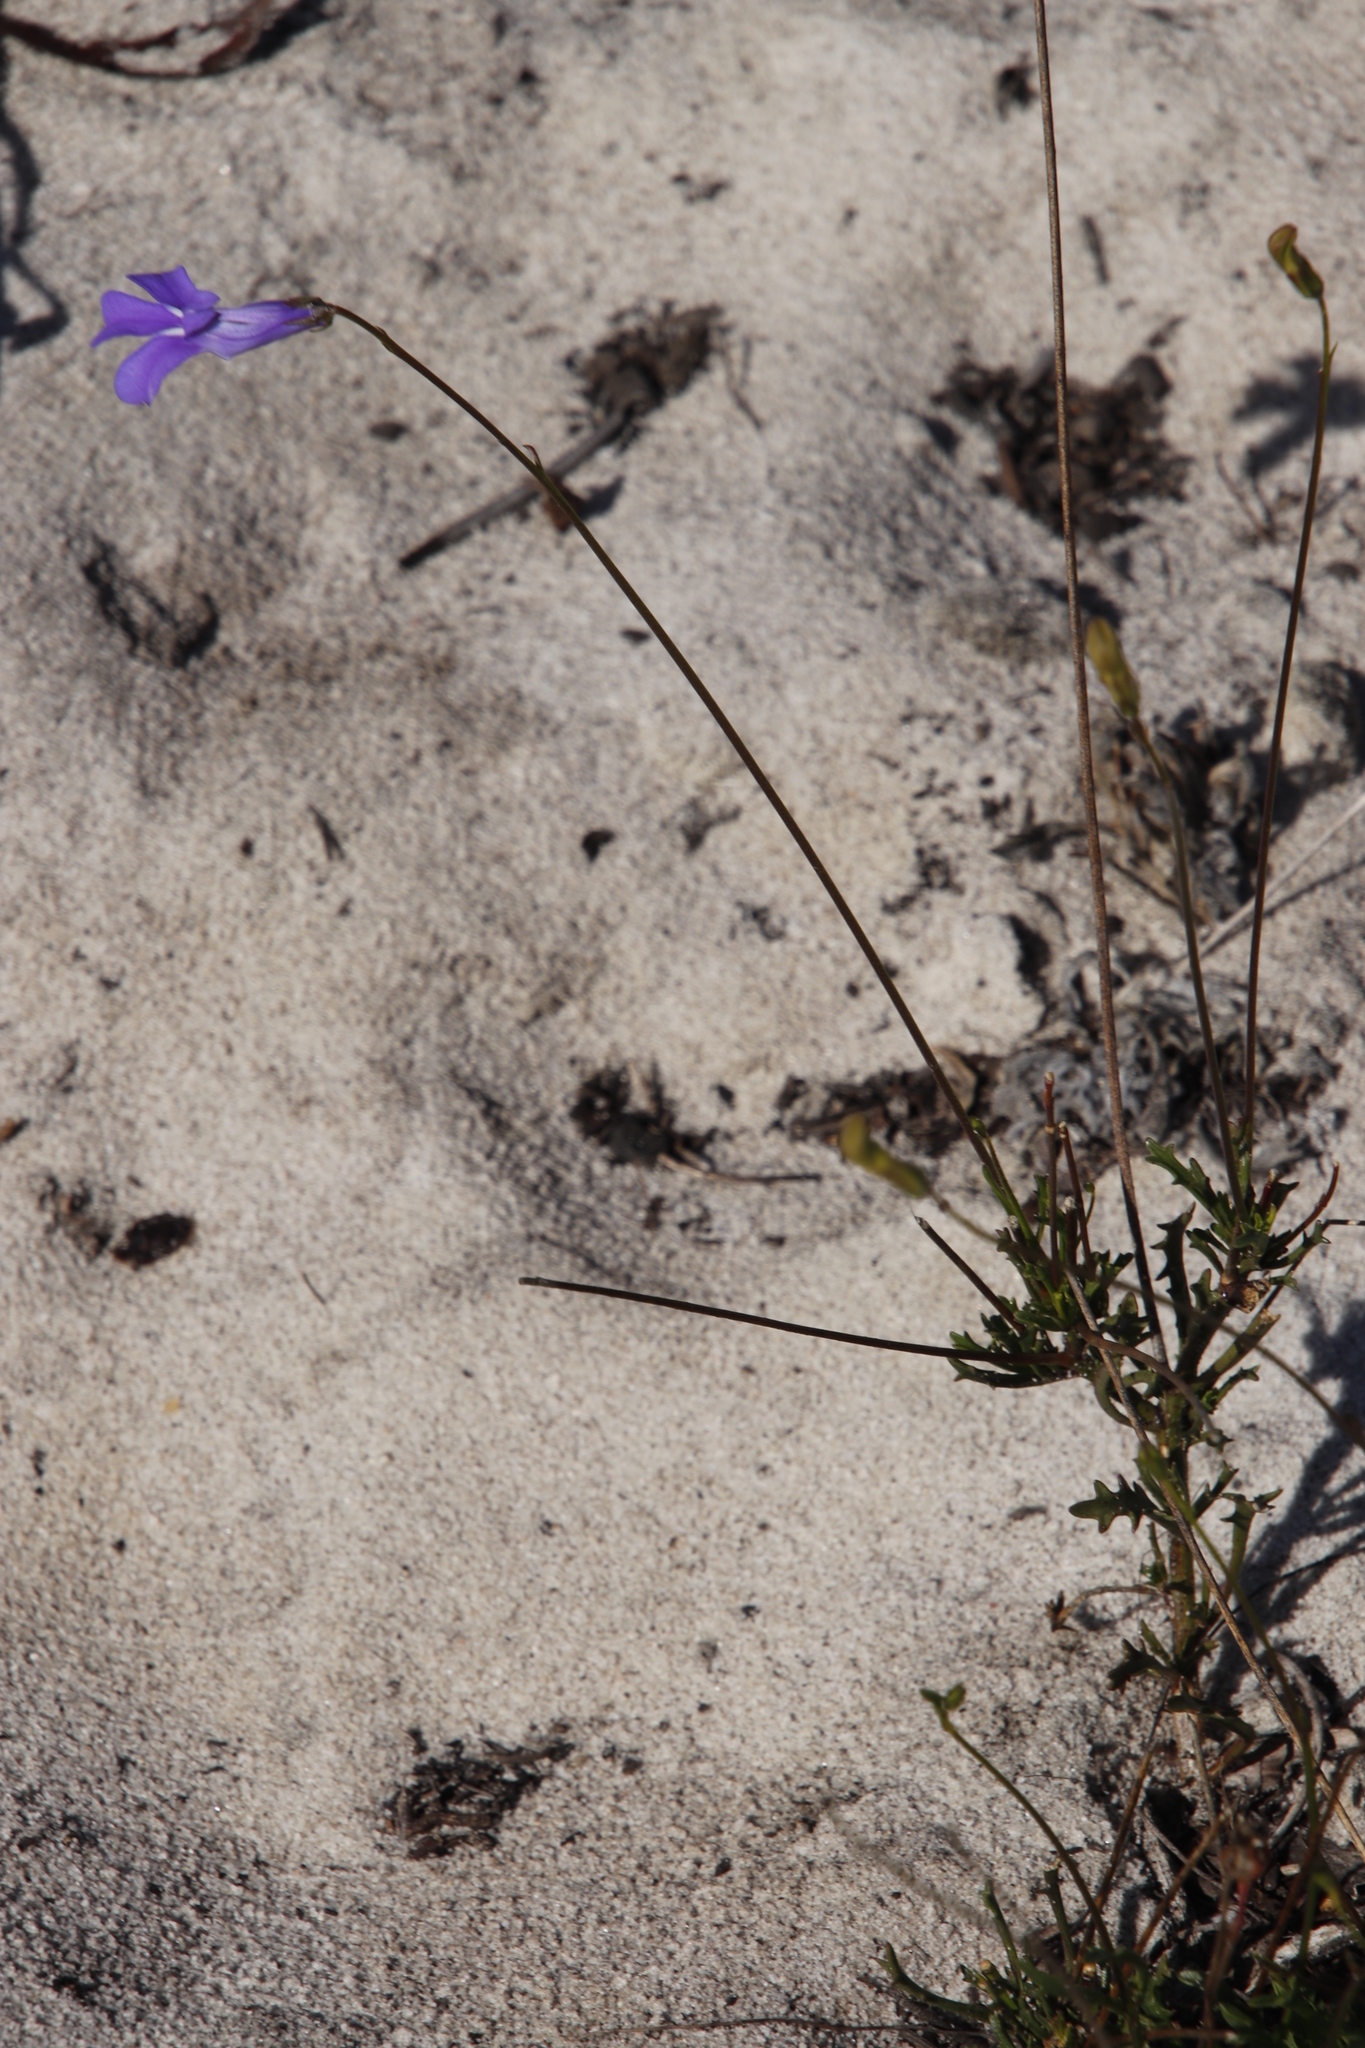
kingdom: Plantae
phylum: Tracheophyta
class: Magnoliopsida
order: Asterales
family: Campanulaceae
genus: Lobelia
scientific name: Lobelia coronopifolia
